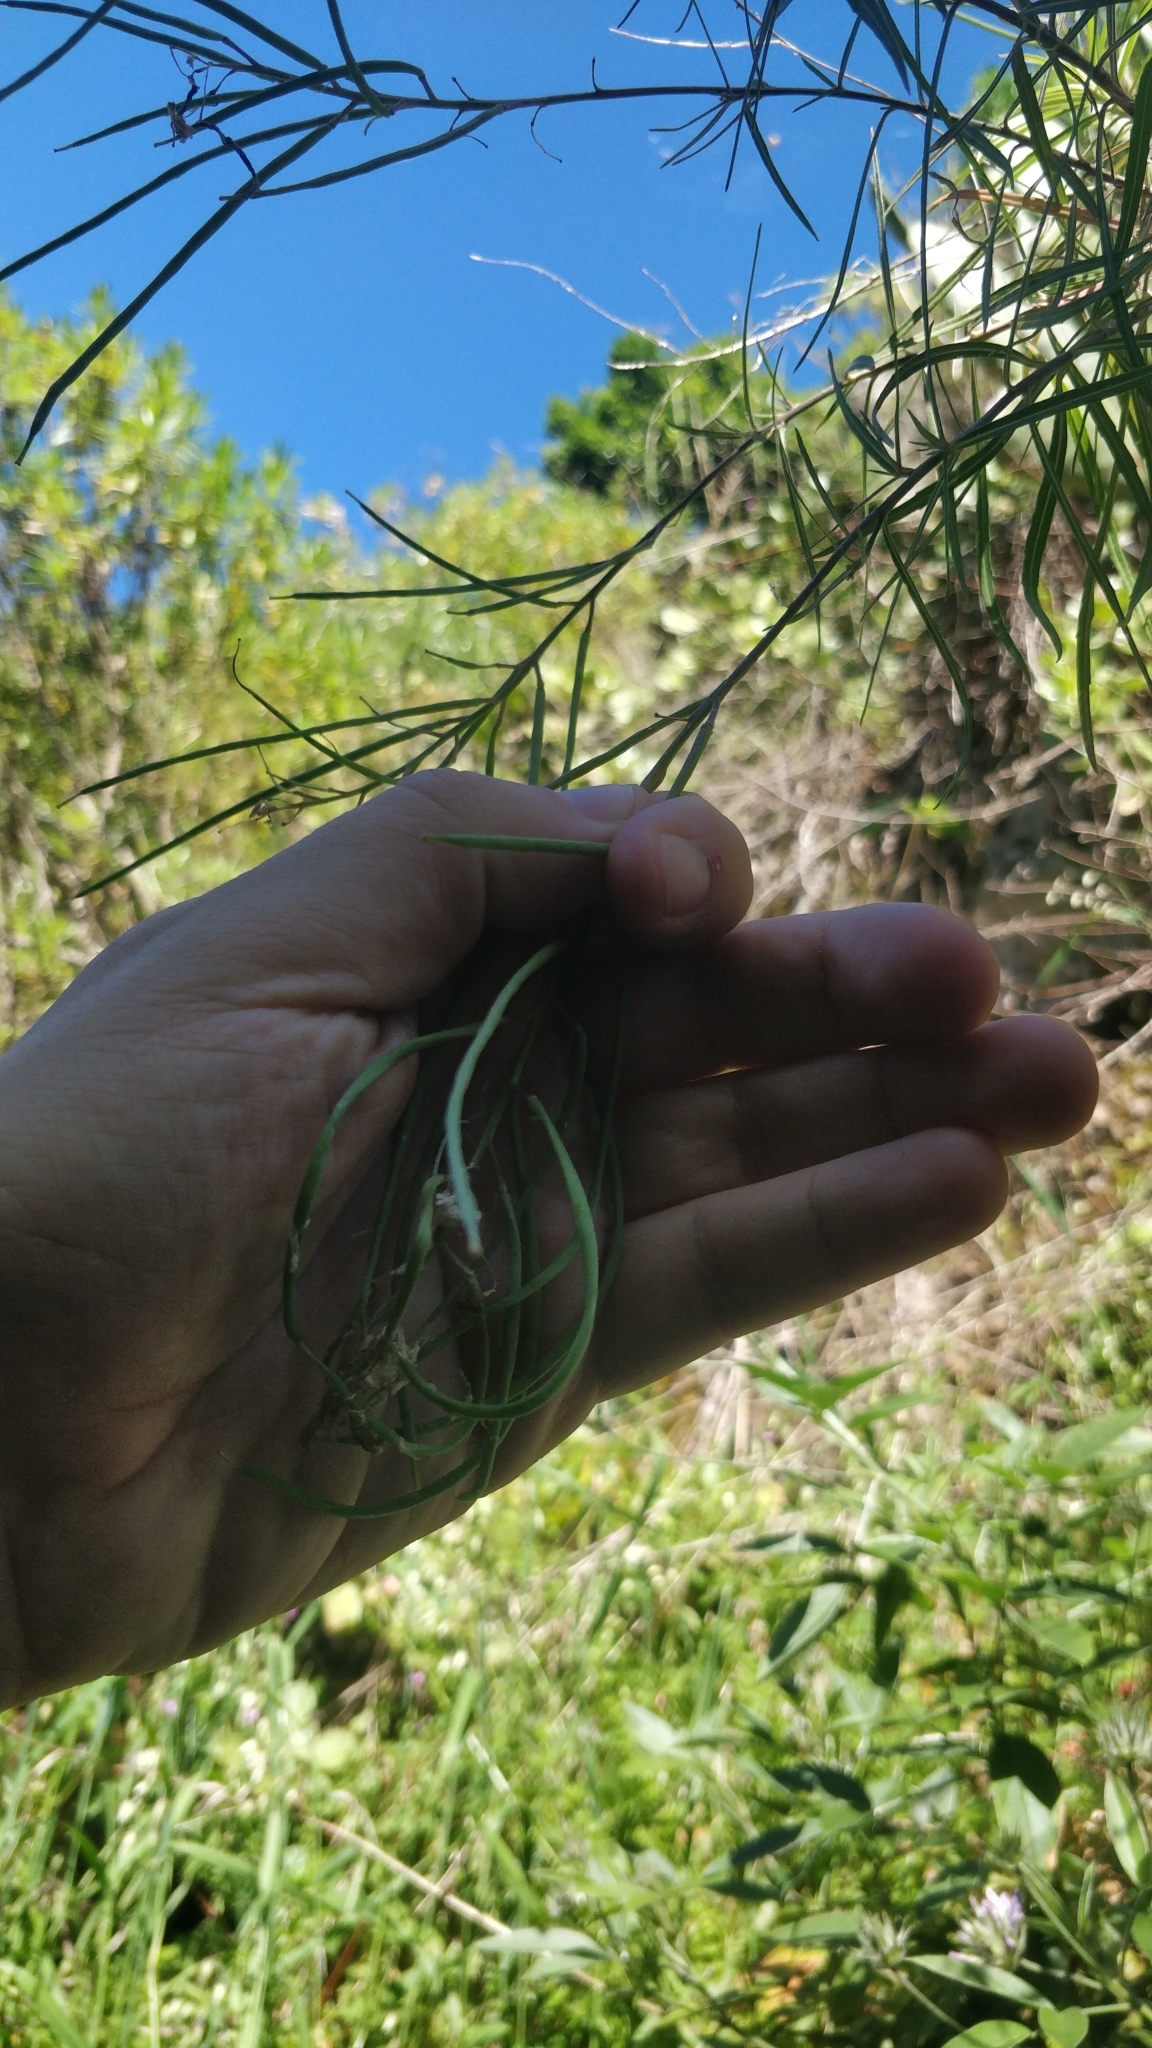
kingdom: Plantae
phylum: Tracheophyta
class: Magnoliopsida
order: Brassicales
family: Brassicaceae
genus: Erysimum
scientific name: Erysimum bicolor
